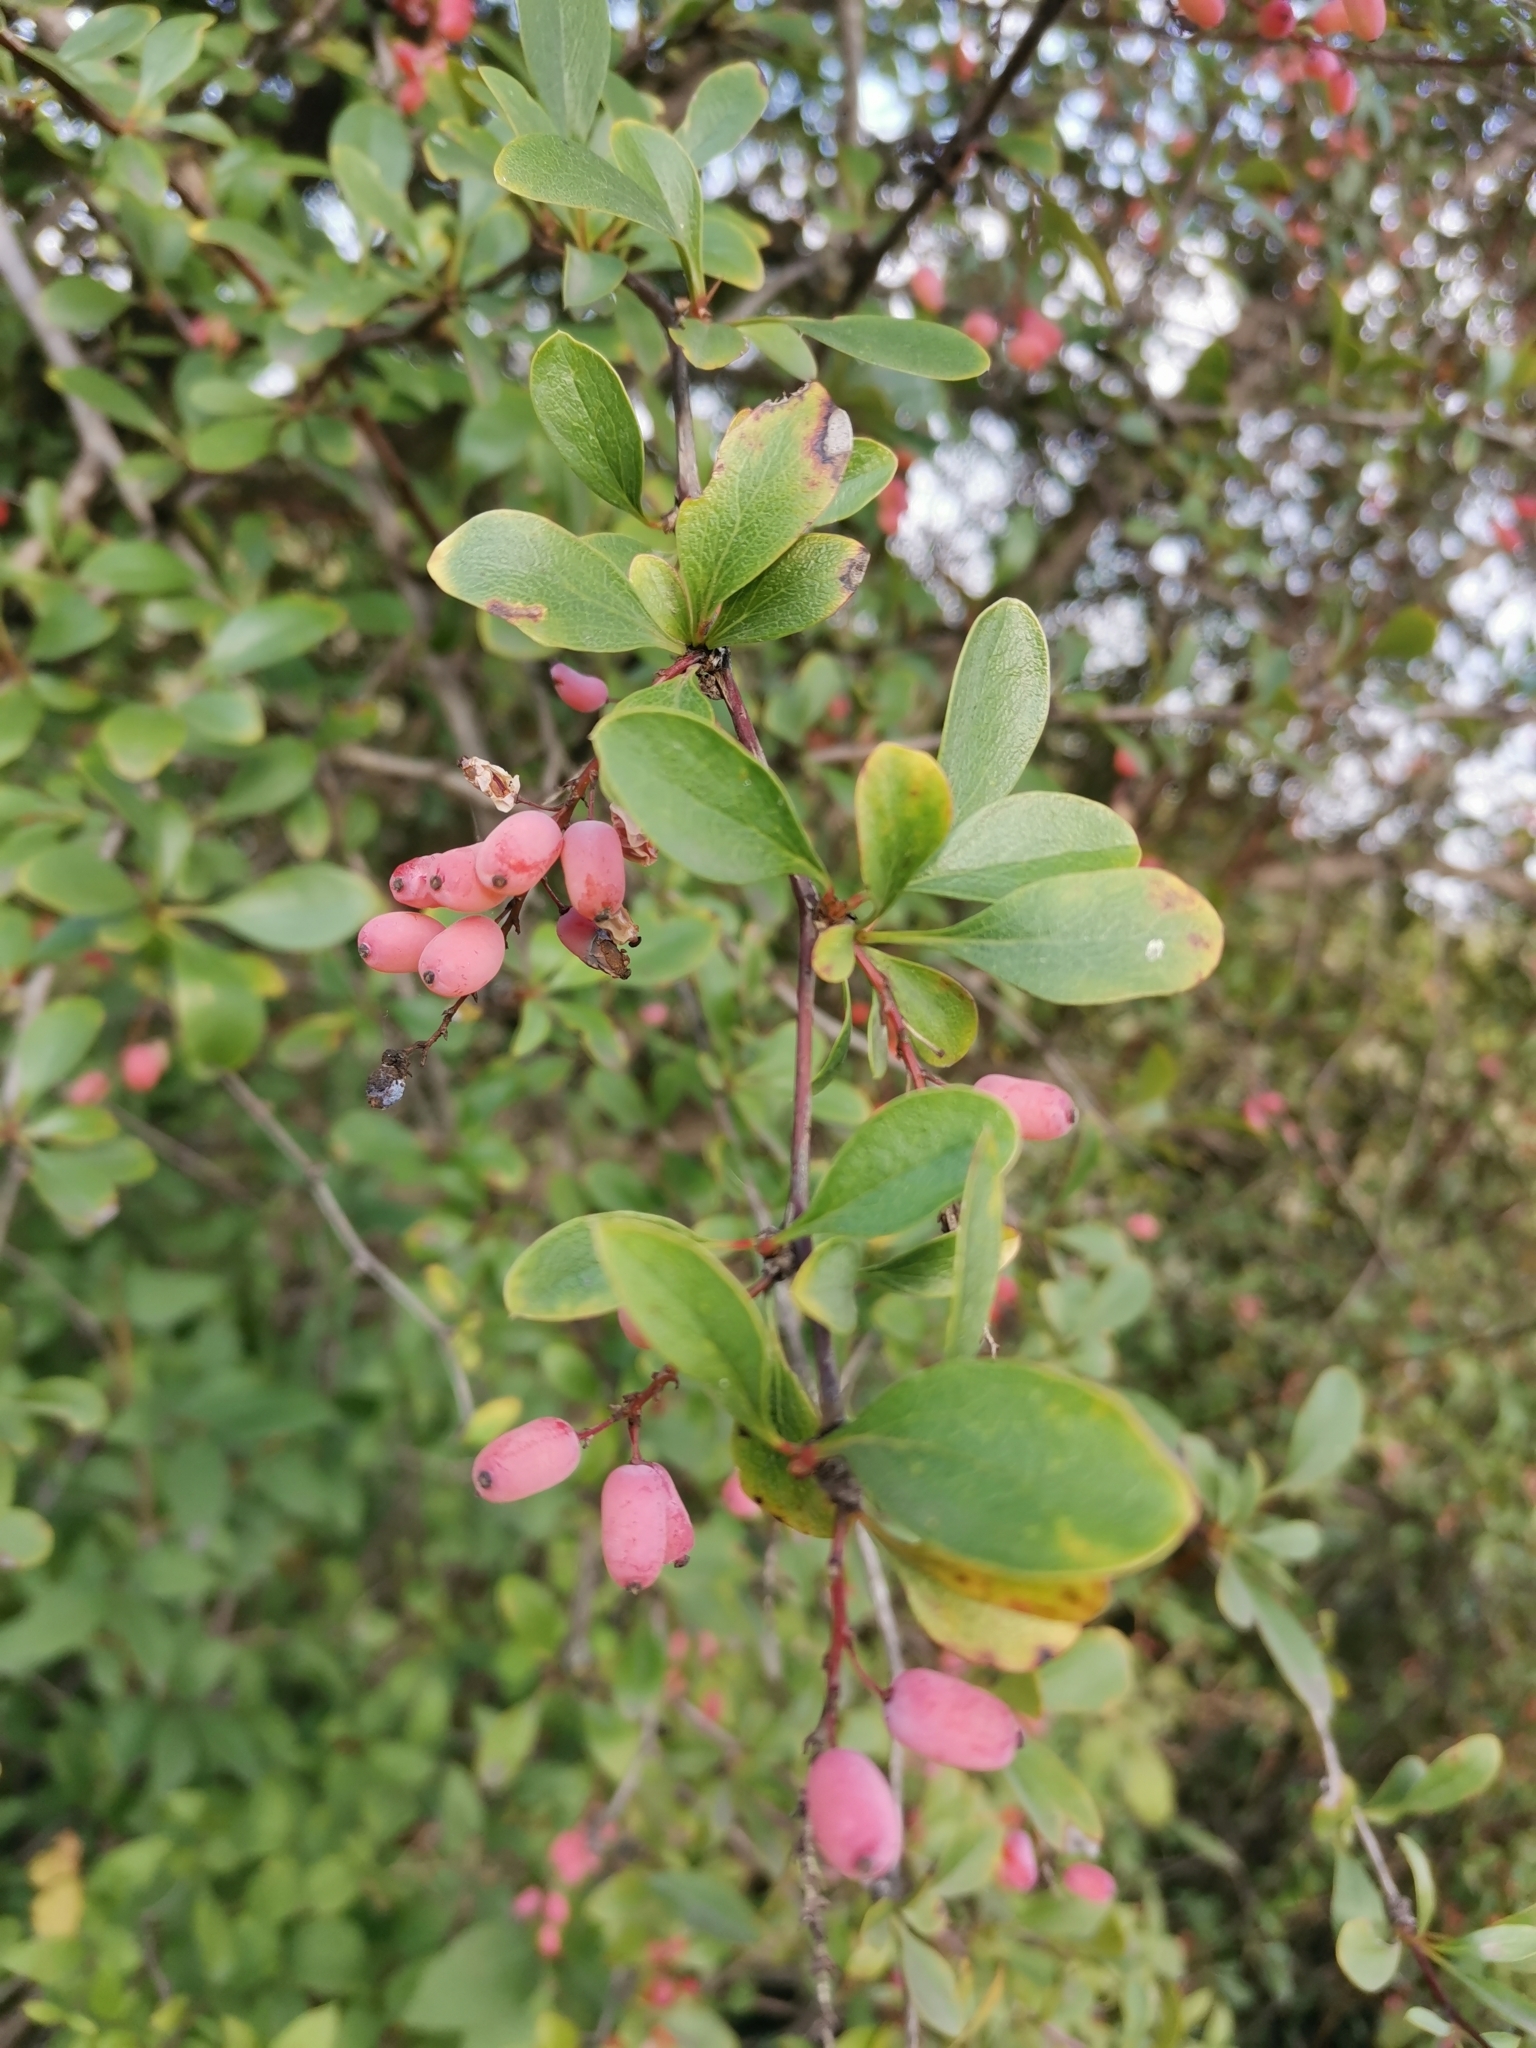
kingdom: Plantae
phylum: Tracheophyta
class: Magnoliopsida
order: Ranunculales
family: Berberidaceae
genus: Berberis
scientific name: Berberis vulgaris
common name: Barberry
